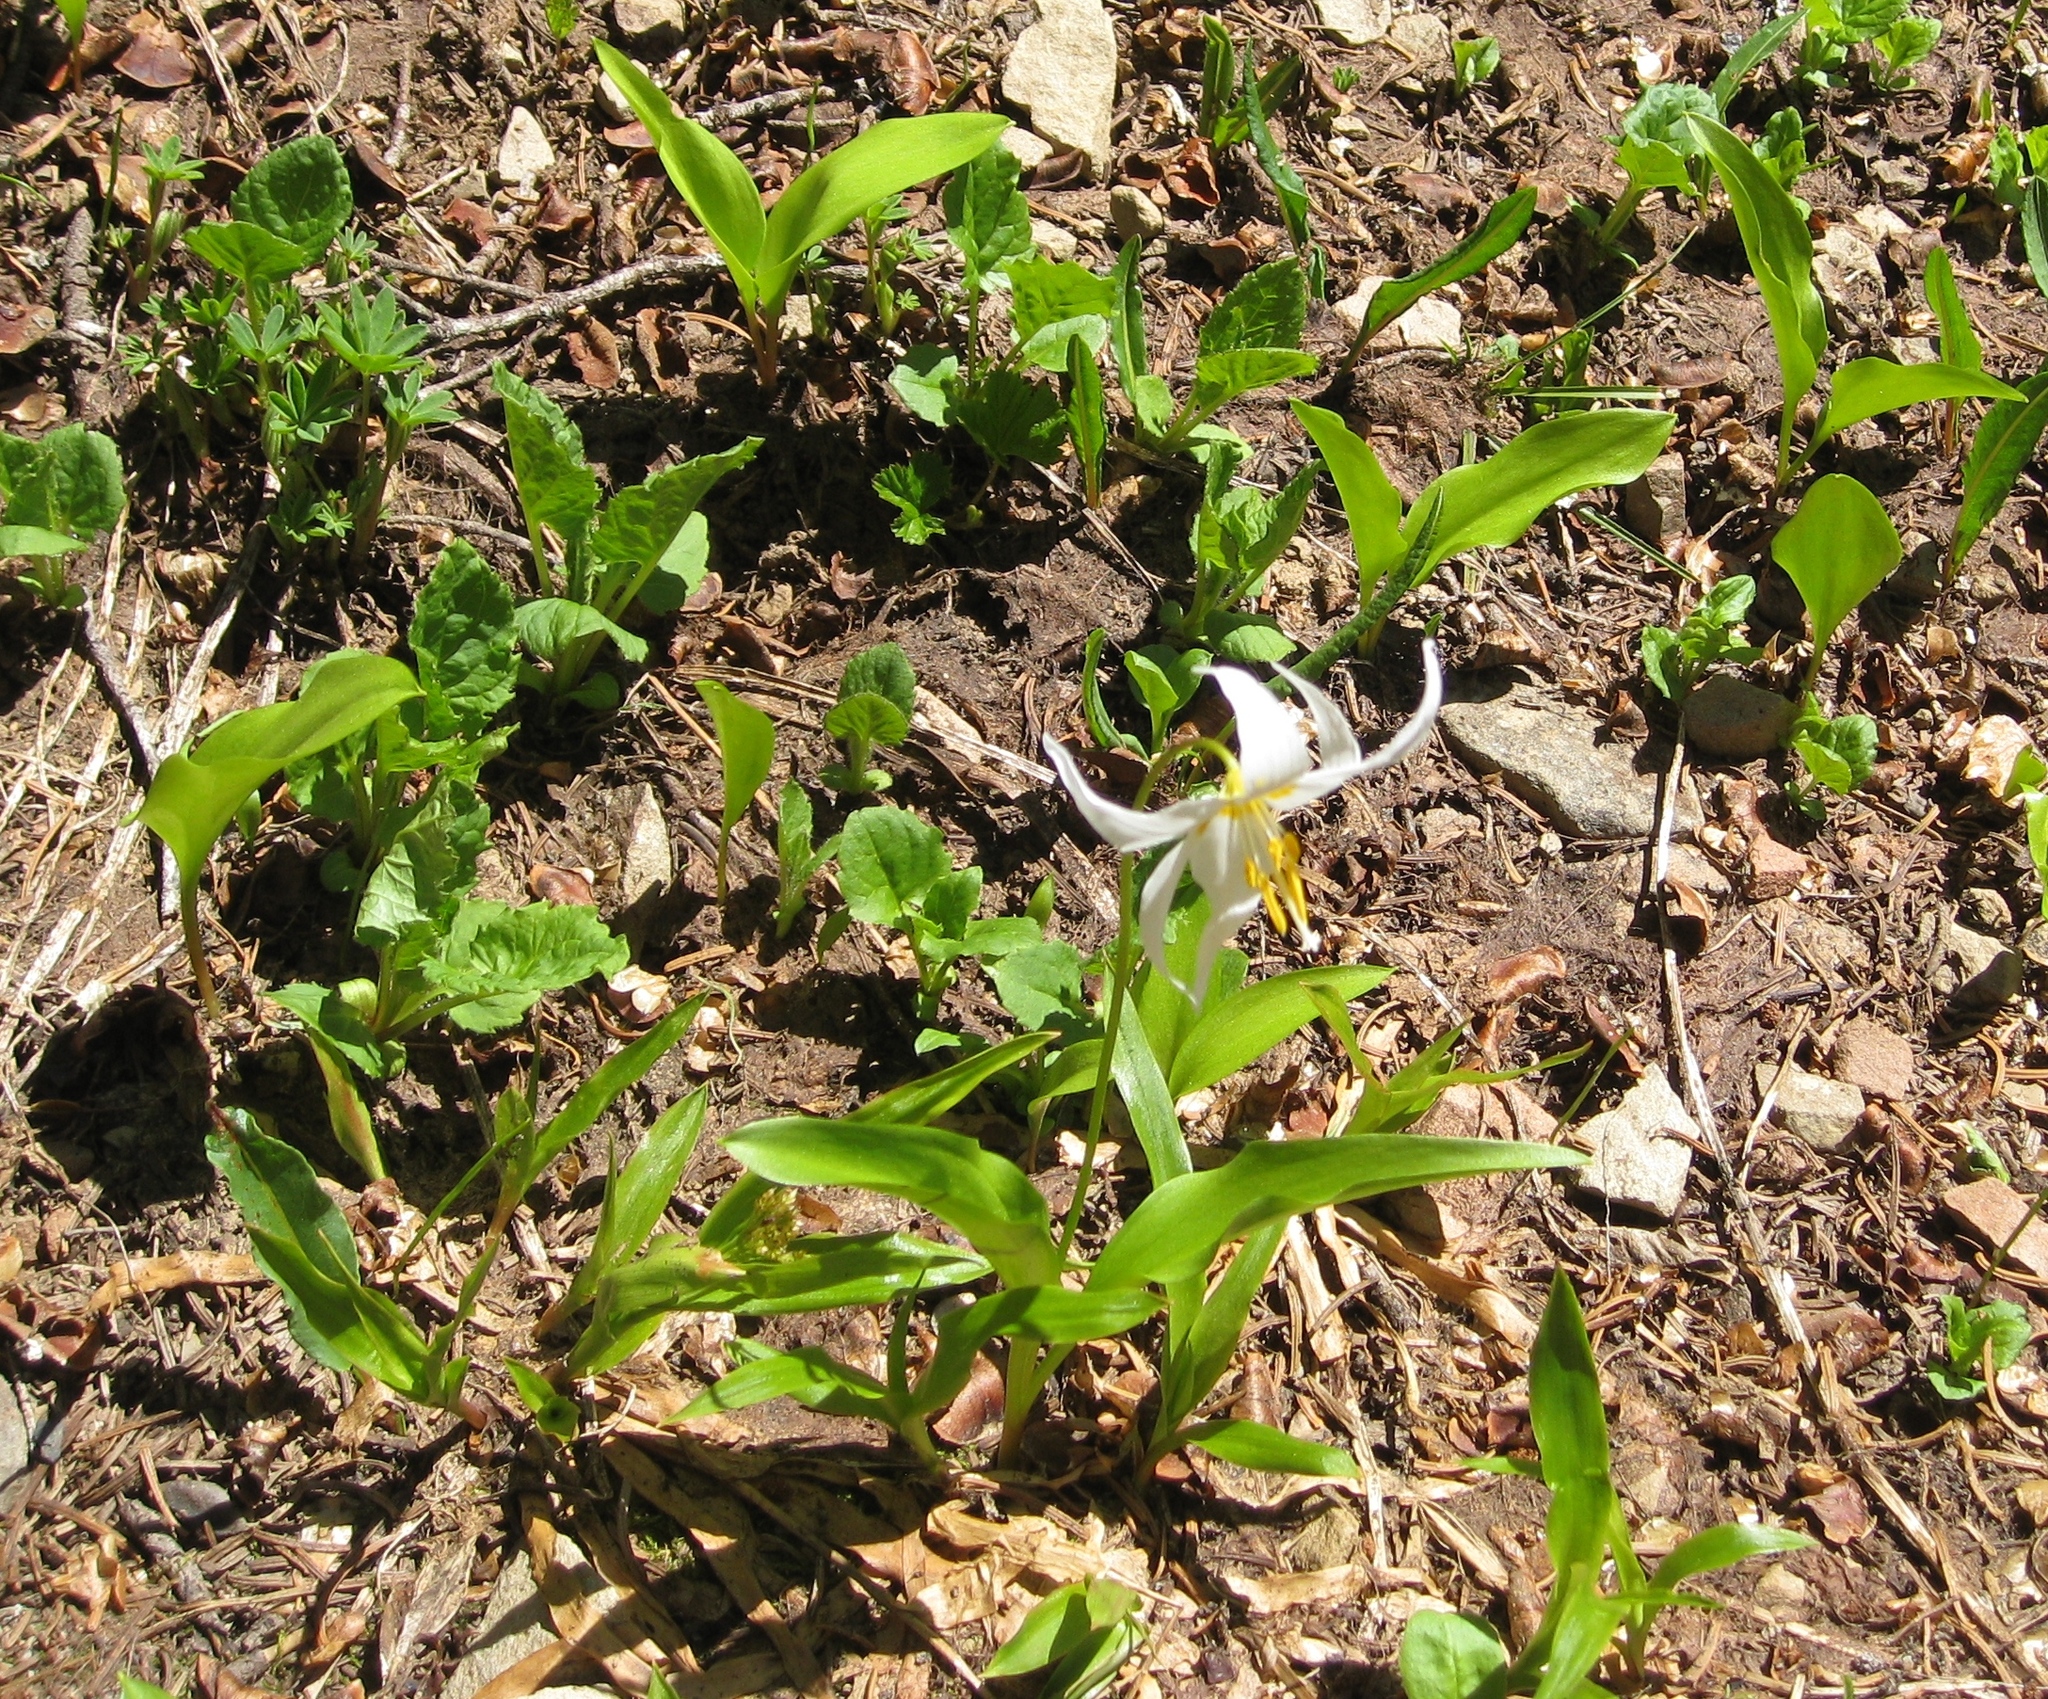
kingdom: Plantae
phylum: Tracheophyta
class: Liliopsida
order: Liliales
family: Liliaceae
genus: Erythronium
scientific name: Erythronium montanum
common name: Avalanche lily
